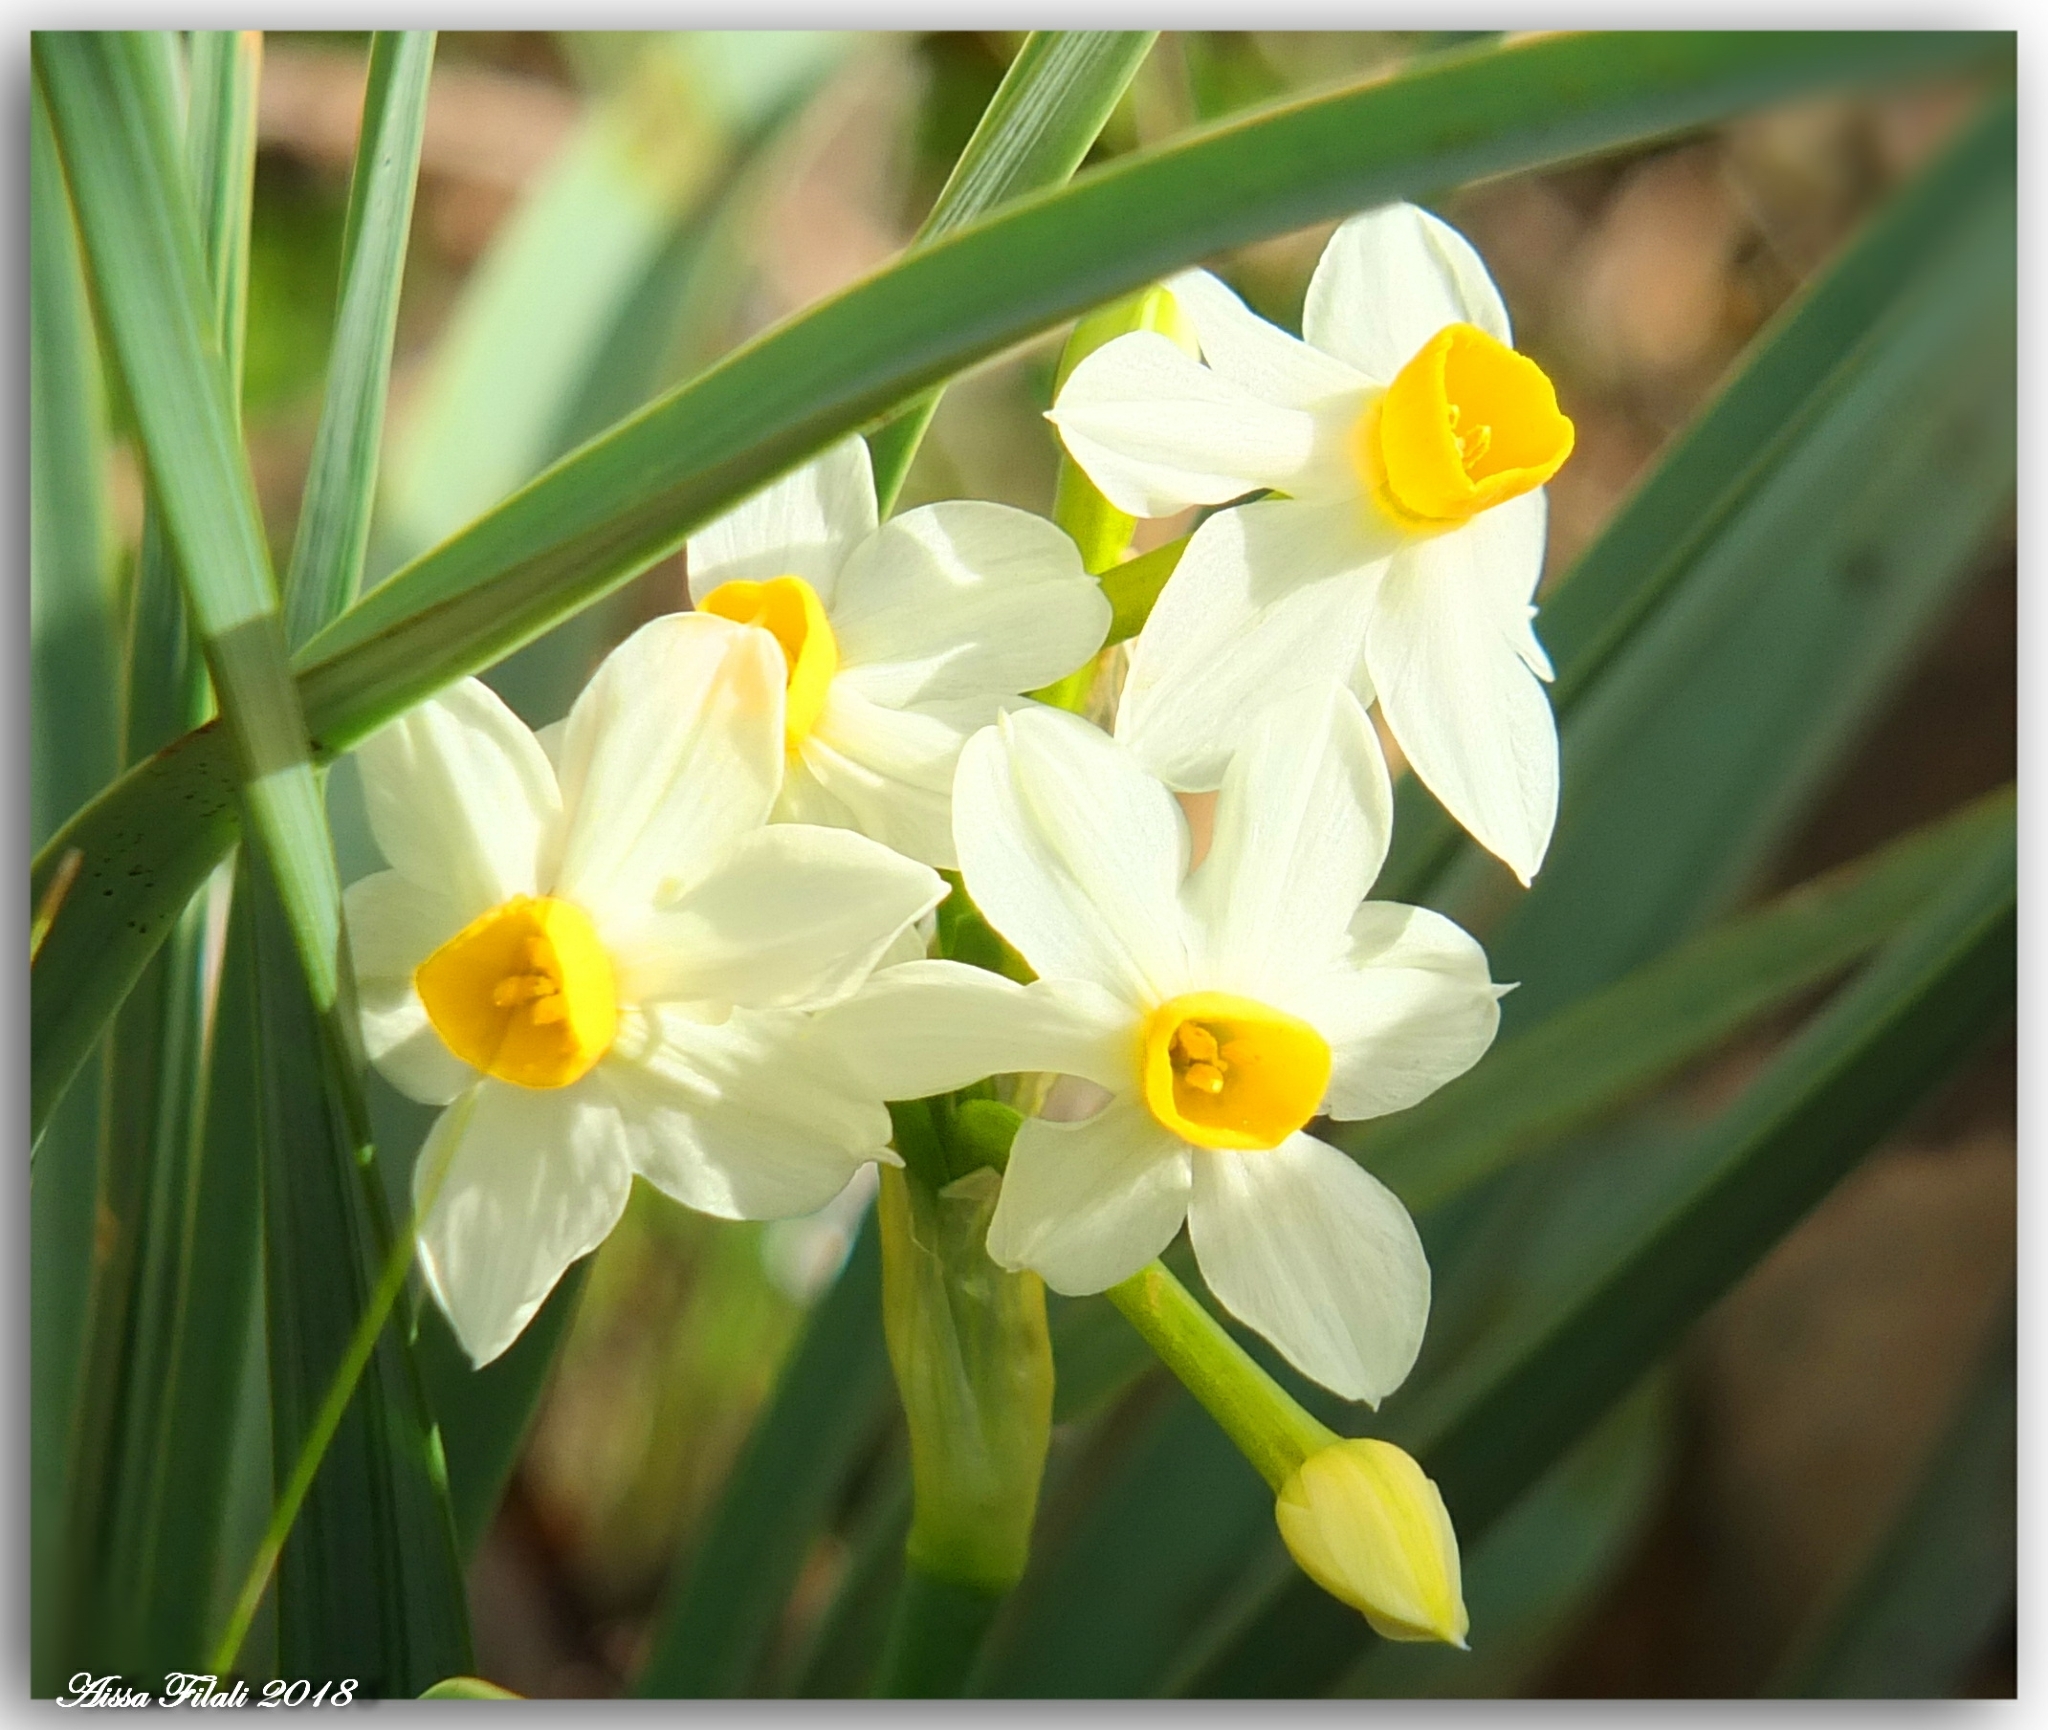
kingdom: Plantae
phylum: Tracheophyta
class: Liliopsida
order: Asparagales
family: Amaryllidaceae
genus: Narcissus
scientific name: Narcissus tazetta
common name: Bunch-flowered daffodil
